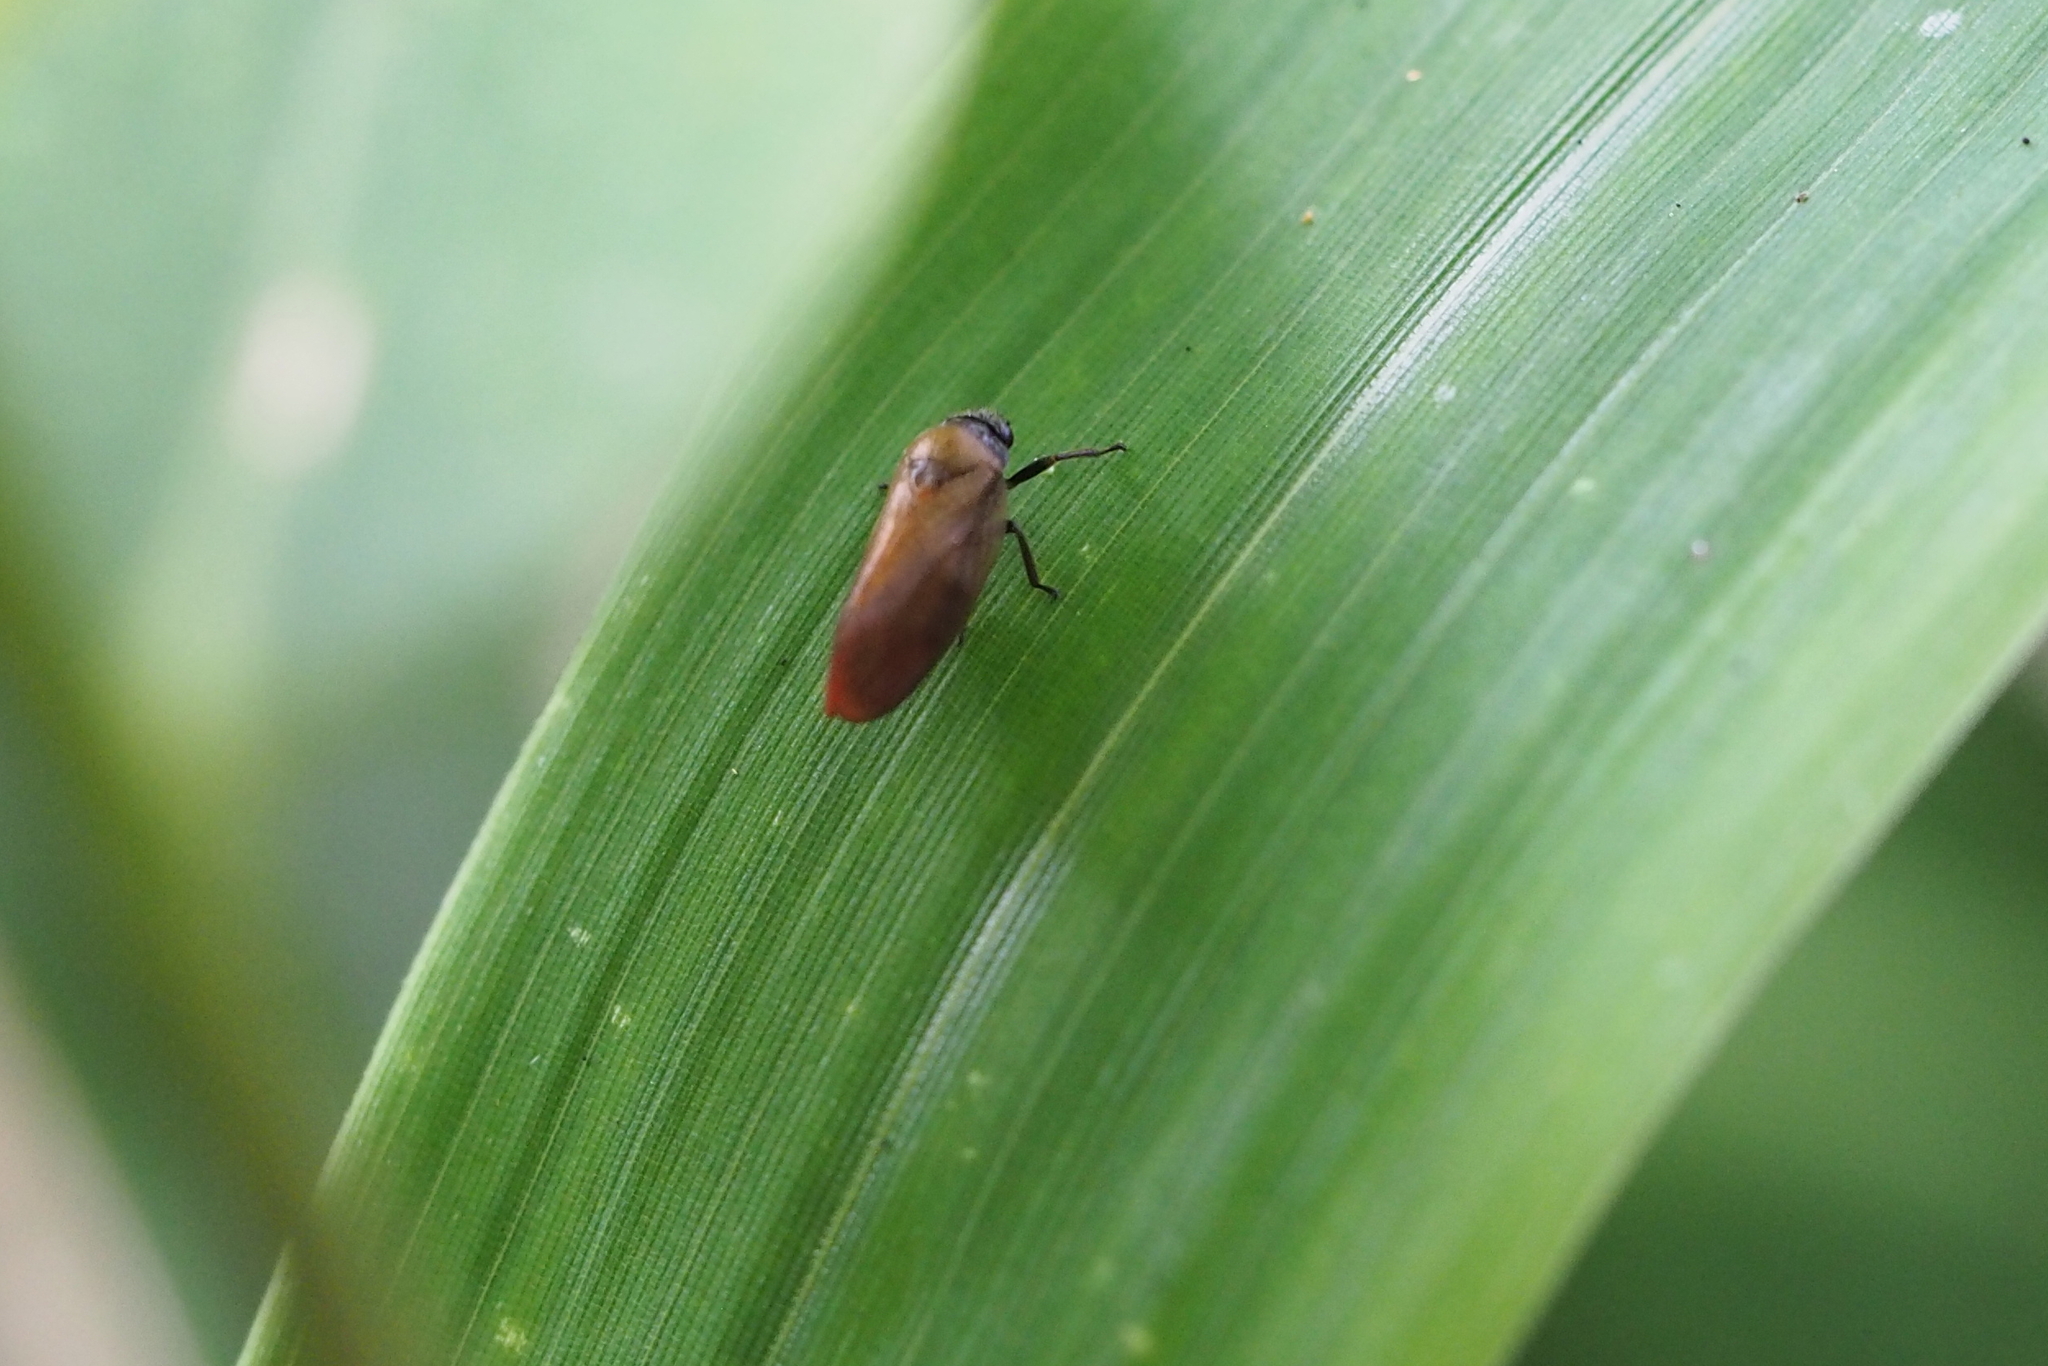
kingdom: Animalia
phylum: Arthropoda
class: Insecta
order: Hemiptera
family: Cercopidae
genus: Eoscarta
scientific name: Eoscarta assimilis
